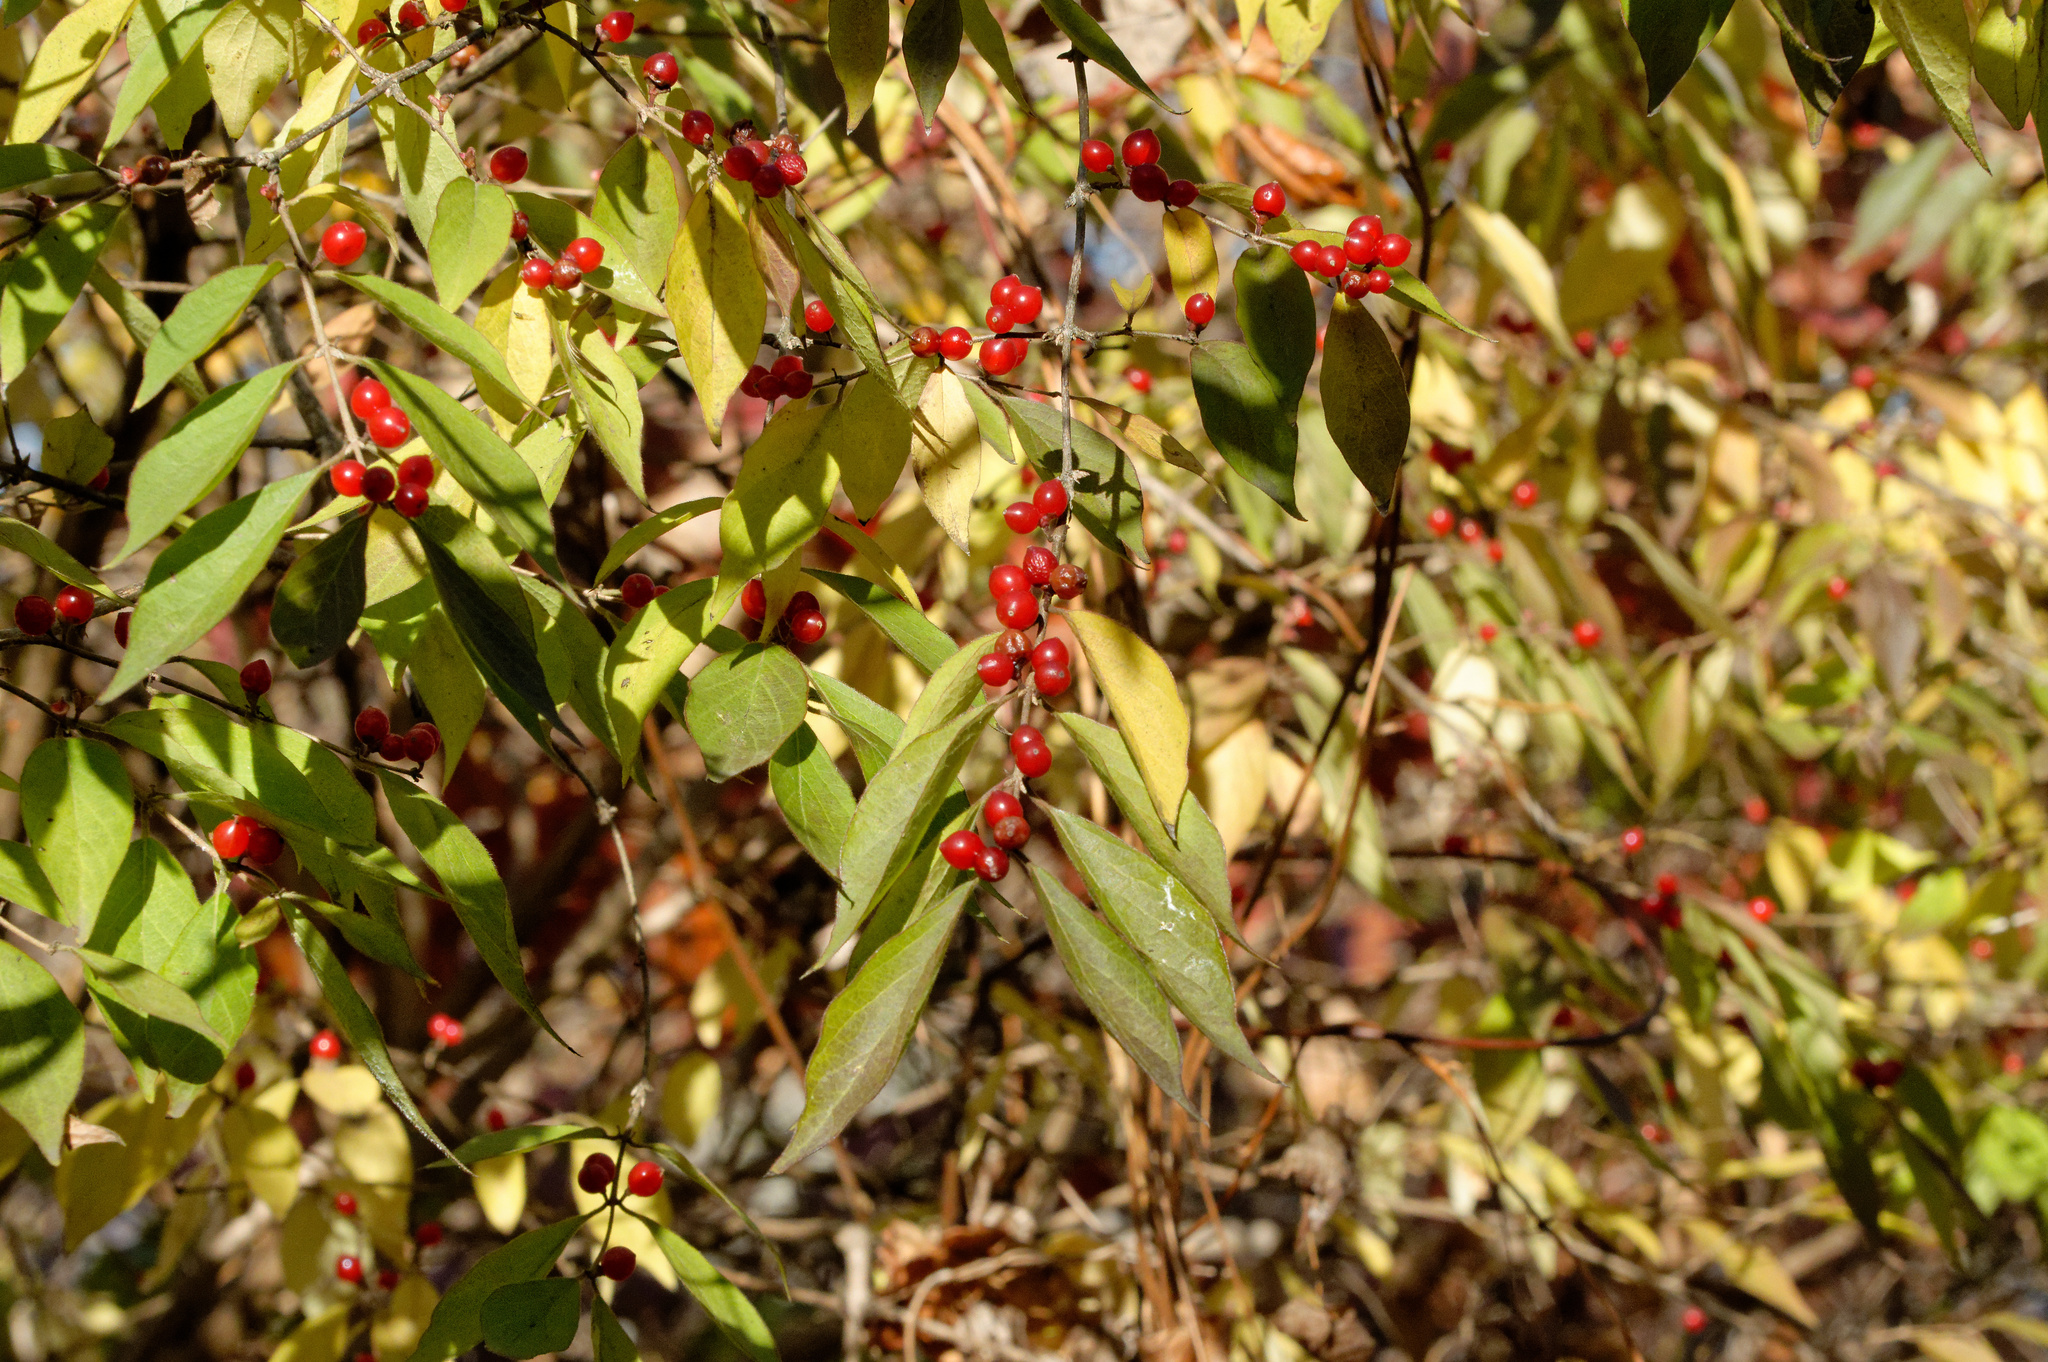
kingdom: Plantae
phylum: Tracheophyta
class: Magnoliopsida
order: Dipsacales
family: Caprifoliaceae
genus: Lonicera
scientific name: Lonicera maackii
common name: Amur honeysuckle
